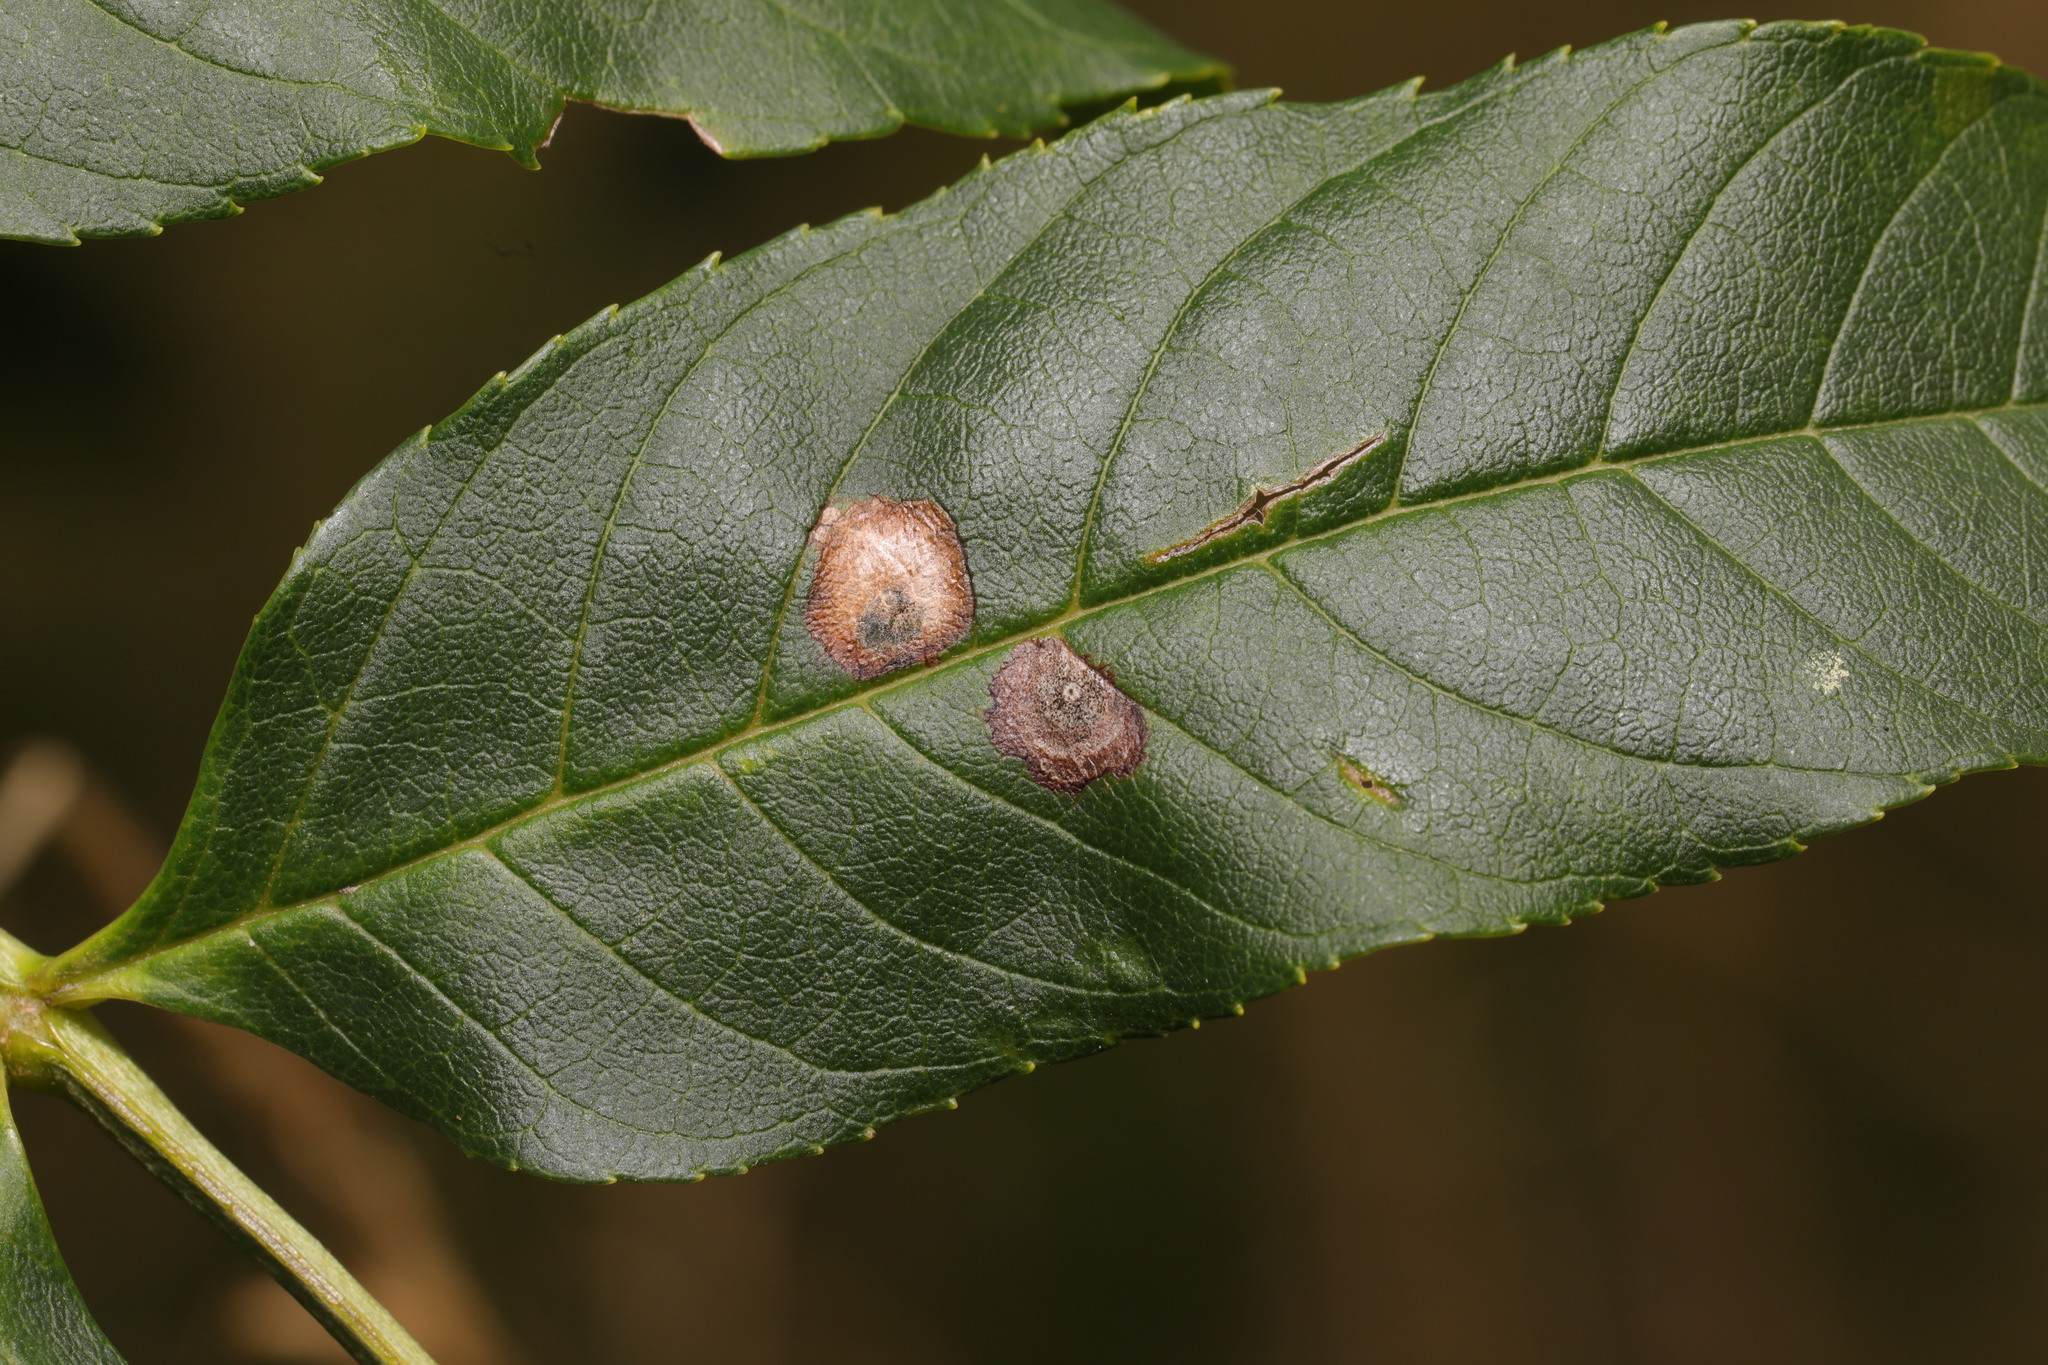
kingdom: Animalia
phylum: Arthropoda
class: Insecta
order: Diptera
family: Cecidomyiidae
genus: Dasineura
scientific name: Dasineura fraxinea
